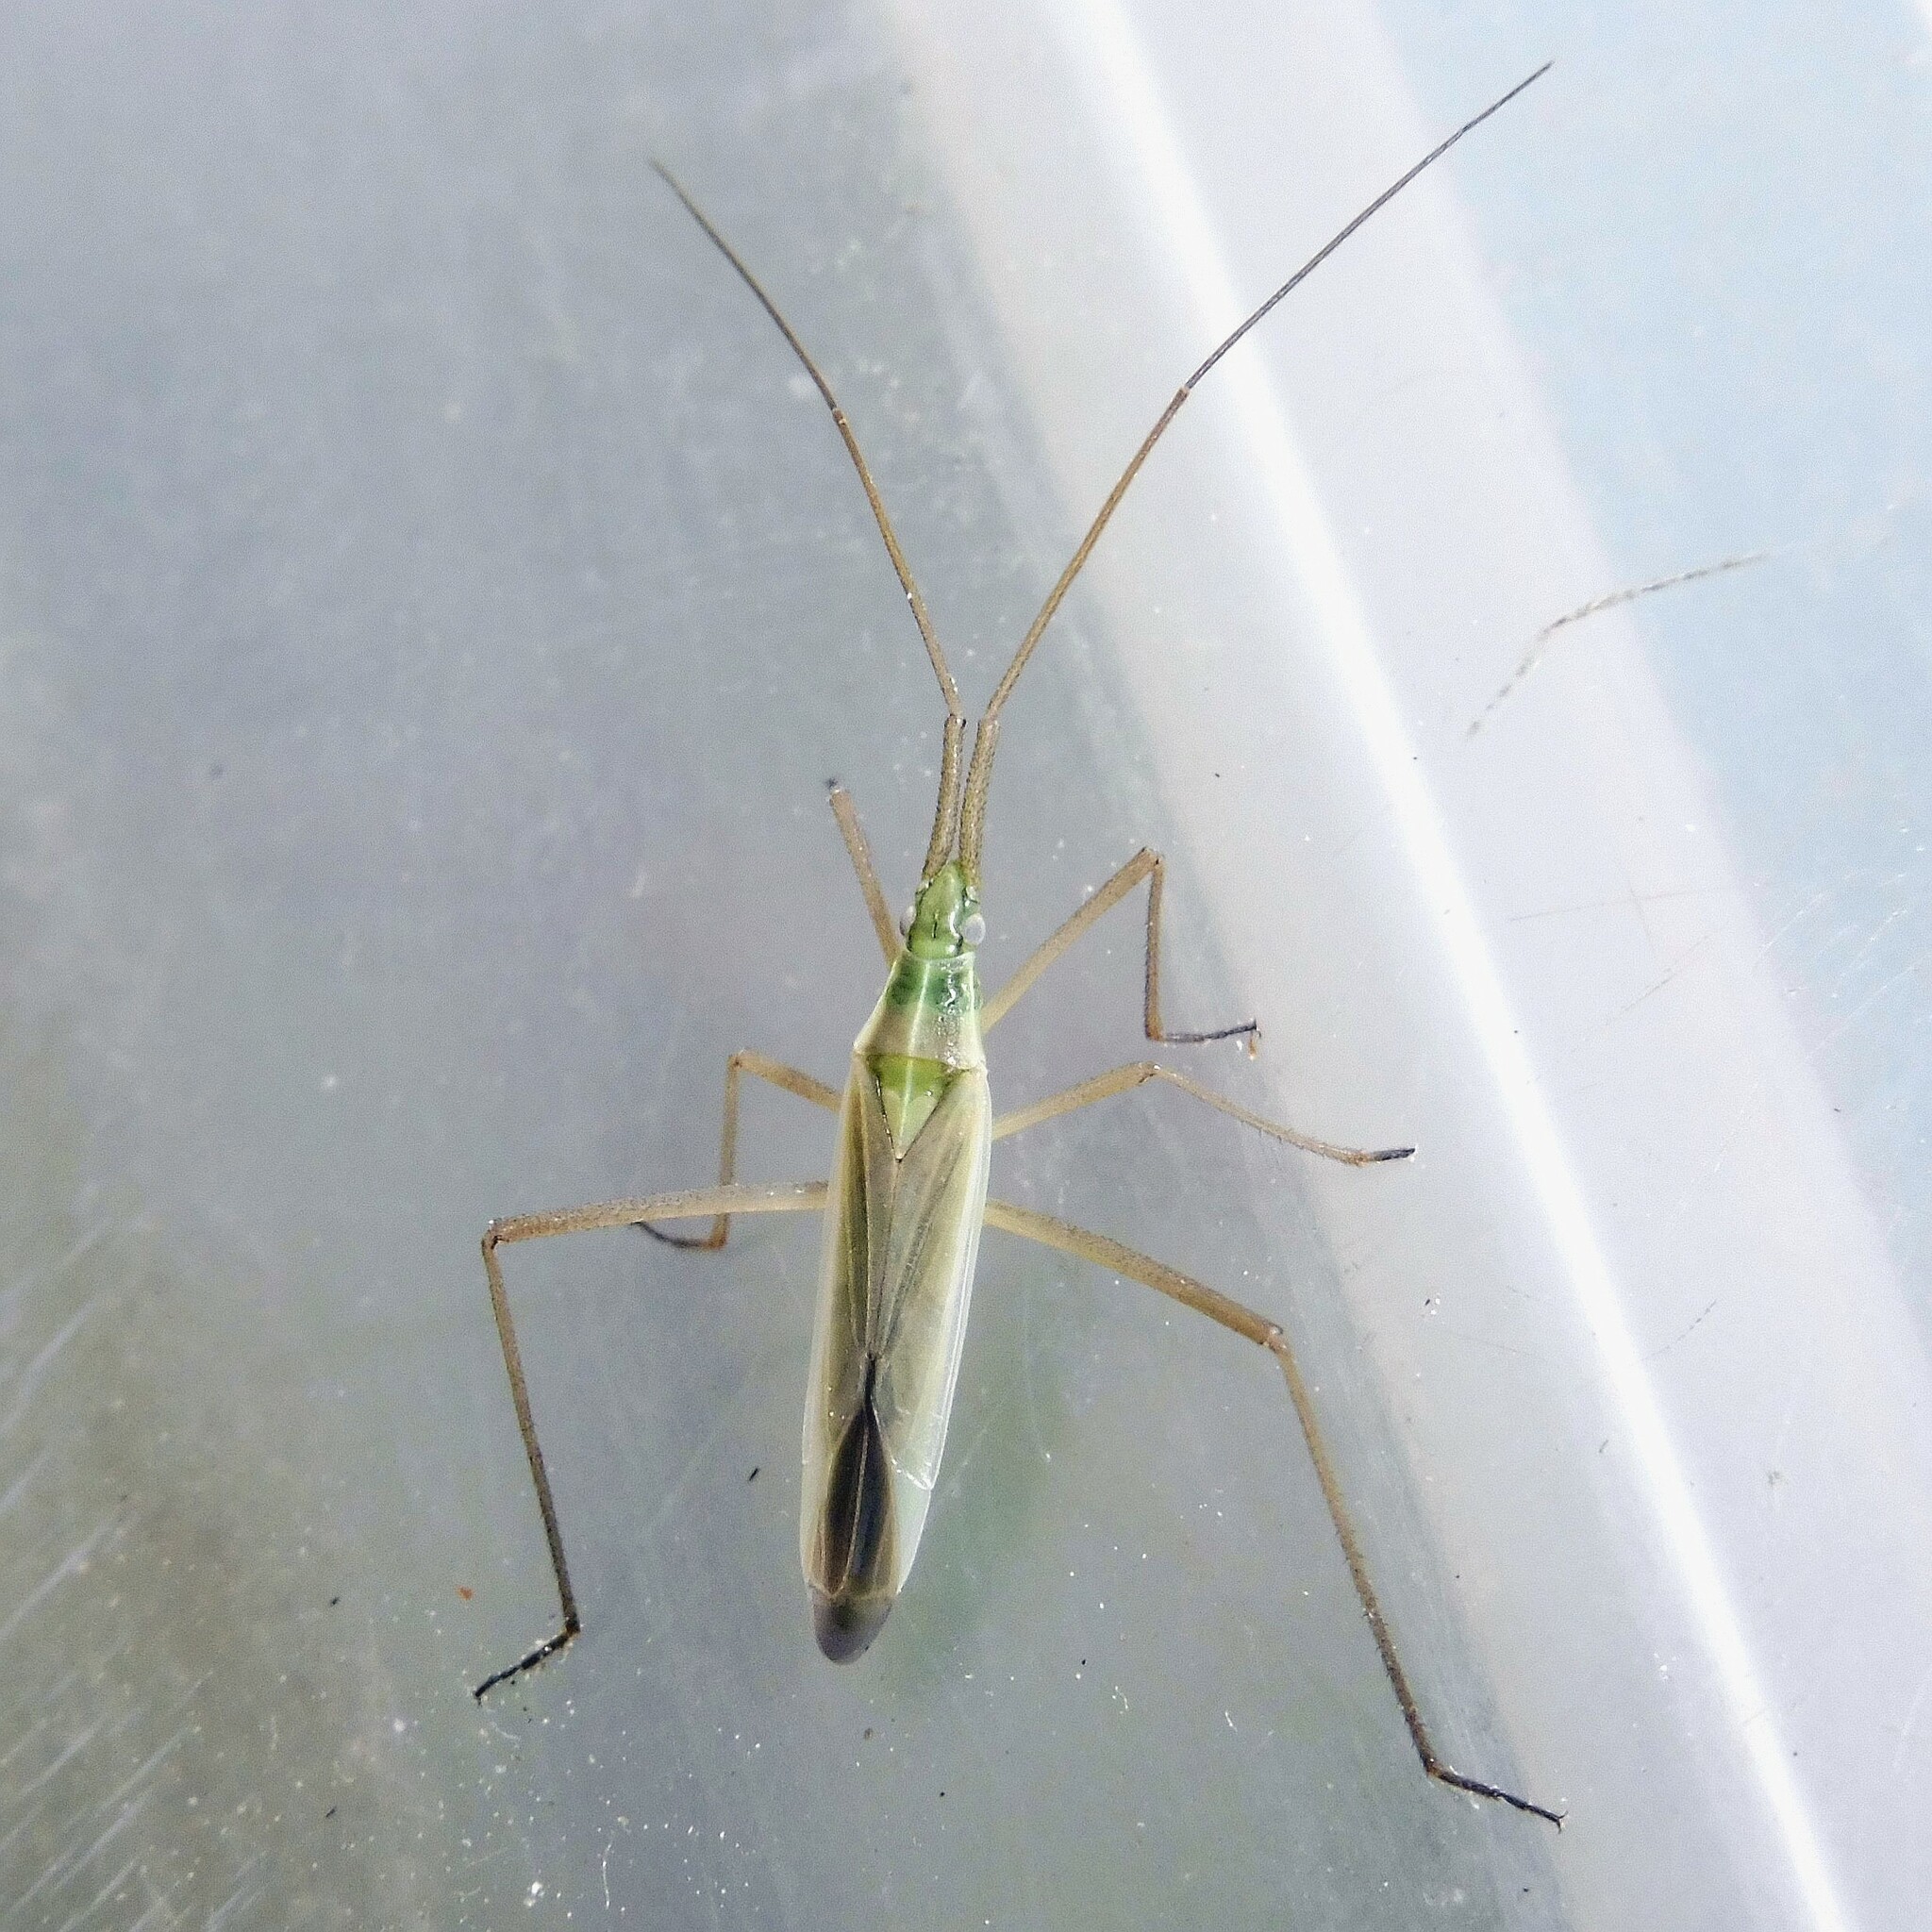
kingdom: Animalia
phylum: Arthropoda
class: Insecta
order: Hemiptera
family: Miridae
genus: Megaloceroea
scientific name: Megaloceroea recticornis
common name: Plant bug
